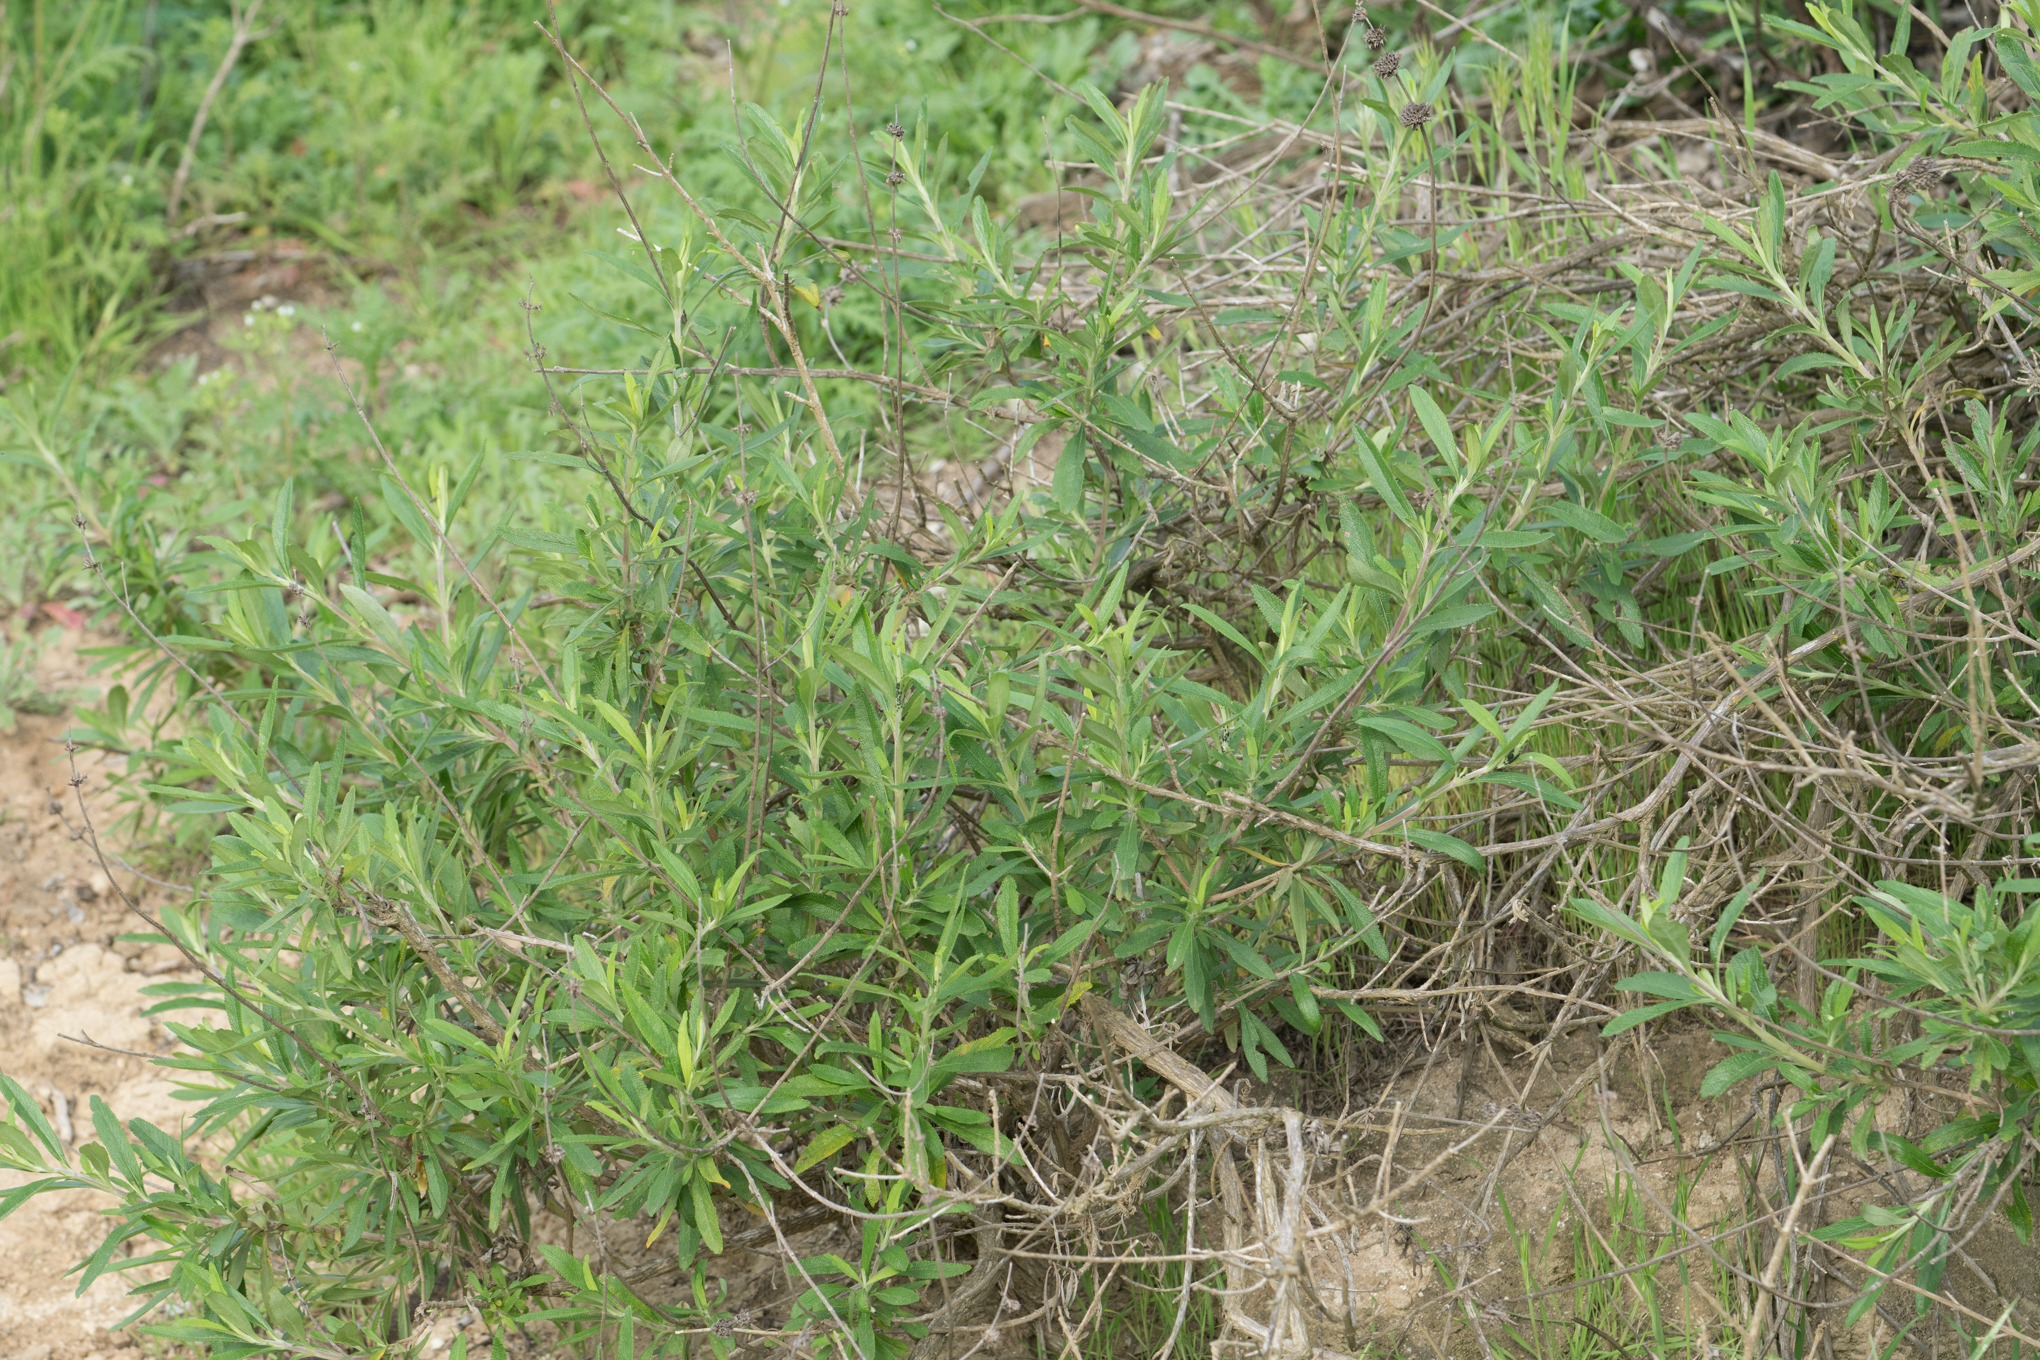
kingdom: Plantae
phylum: Tracheophyta
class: Magnoliopsida
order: Lamiales
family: Lamiaceae
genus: Salvia
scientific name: Salvia mellifera
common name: Black sage
